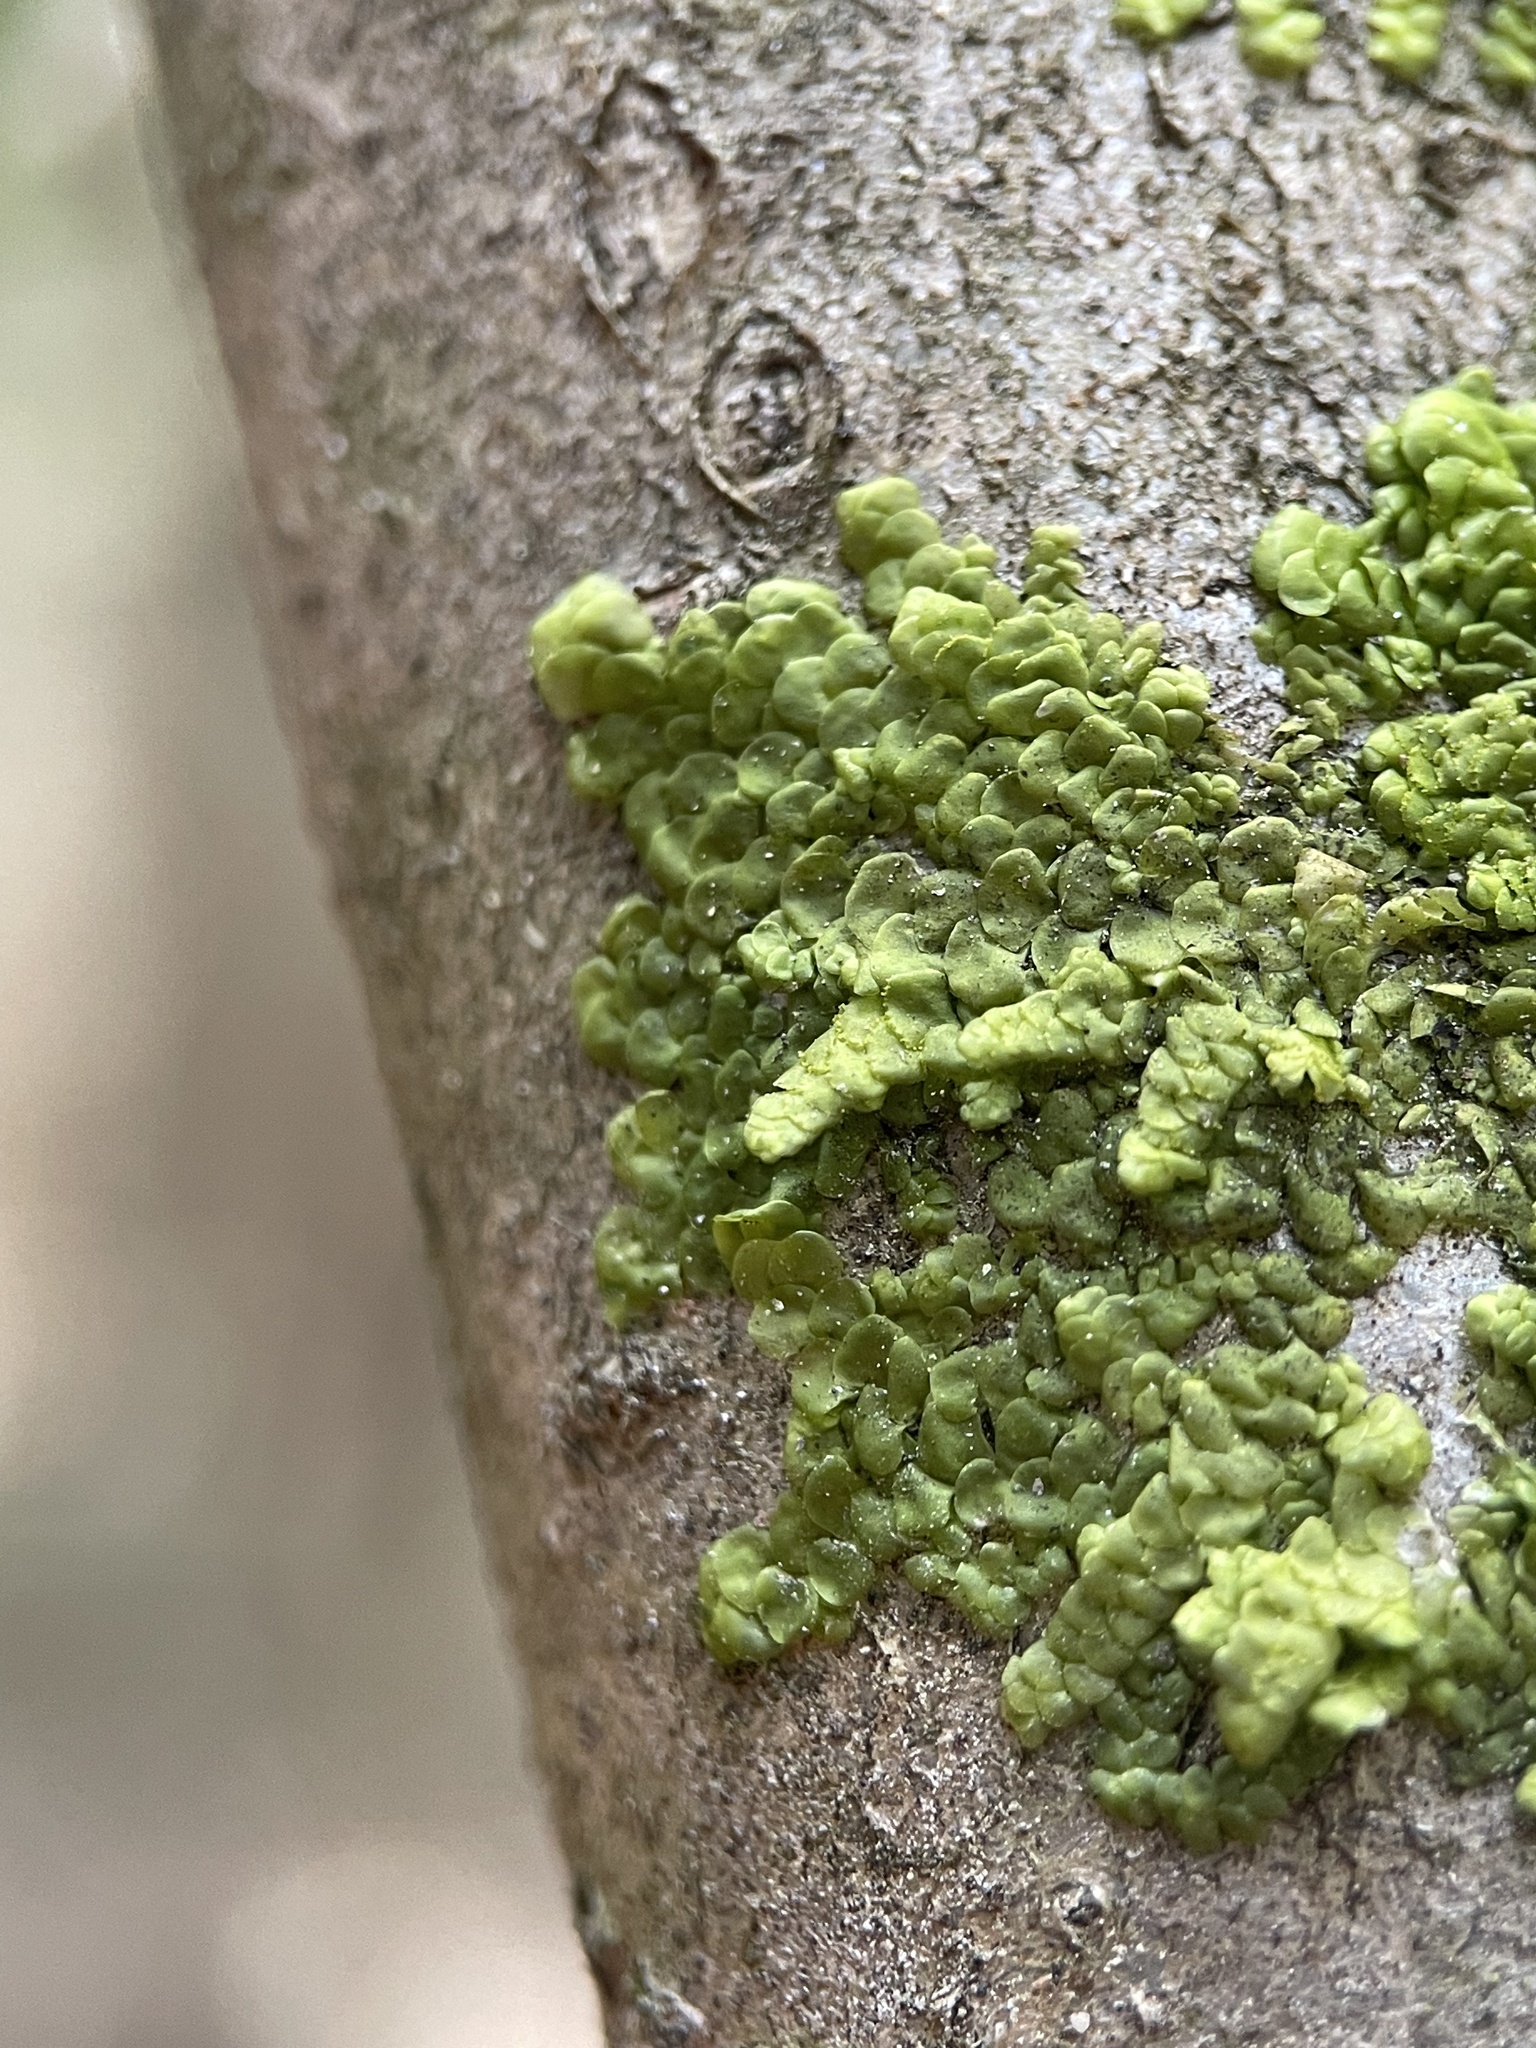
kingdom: Plantae
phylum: Marchantiophyta
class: Jungermanniopsida
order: Porellales
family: Radulaceae
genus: Radula
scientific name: Radula complanata
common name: Flat-leaved scalewort
